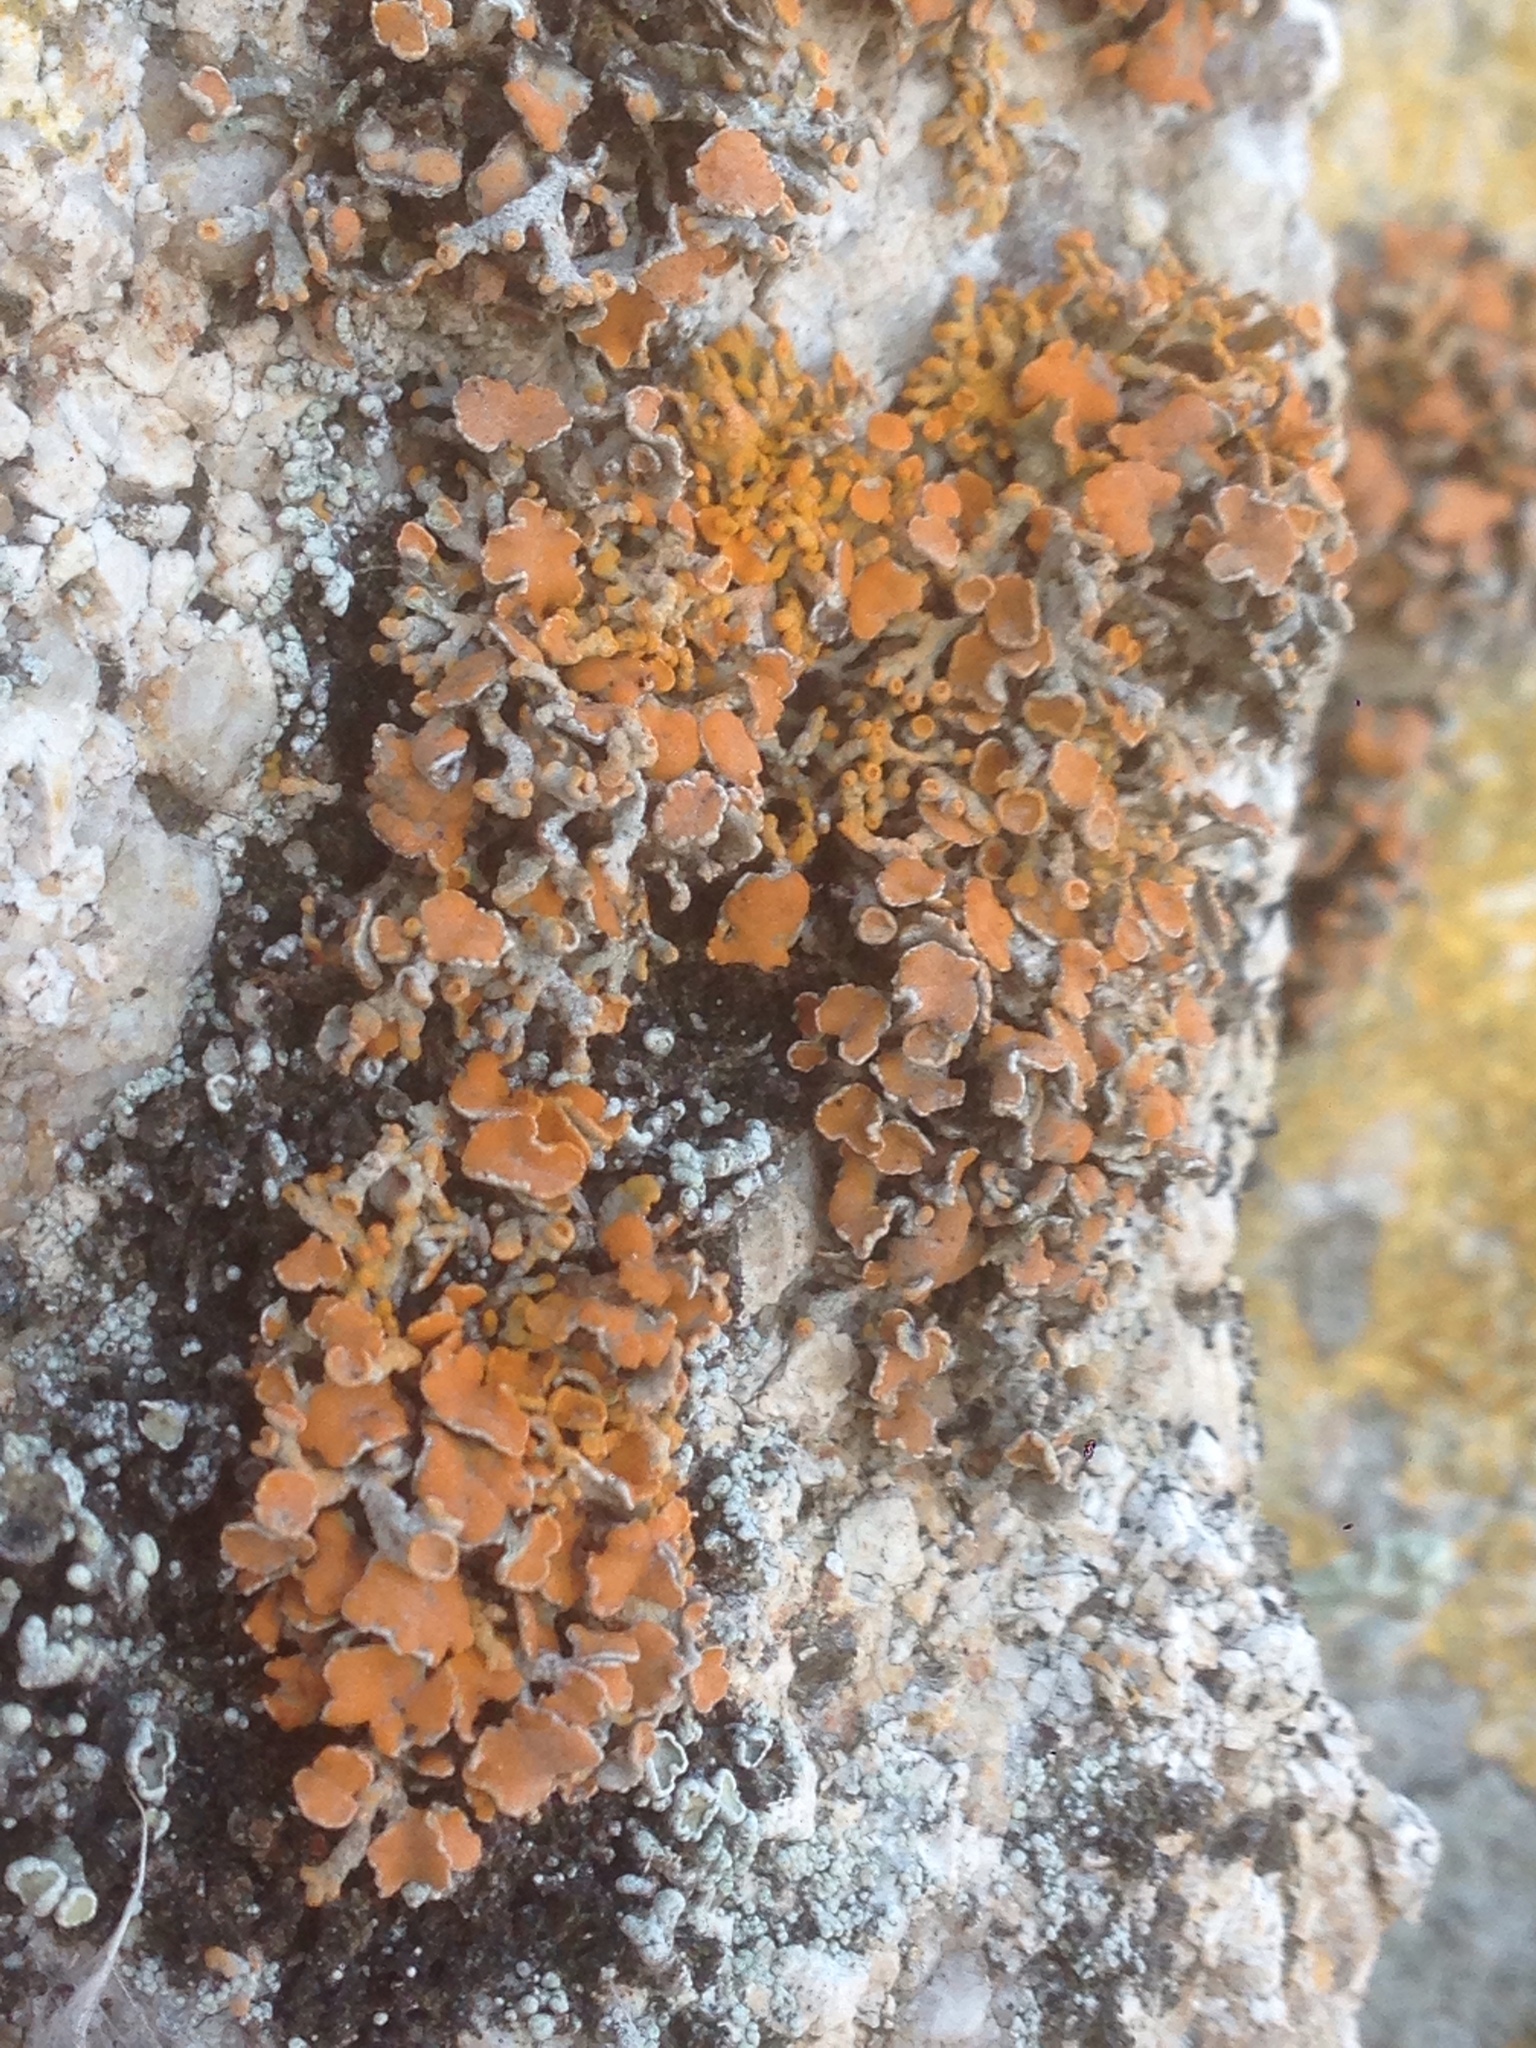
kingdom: Fungi
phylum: Ascomycota
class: Lecanoromycetes
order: Lecanorales
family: Lecanoraceae
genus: Edrudia
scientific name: Edrudia constipans
